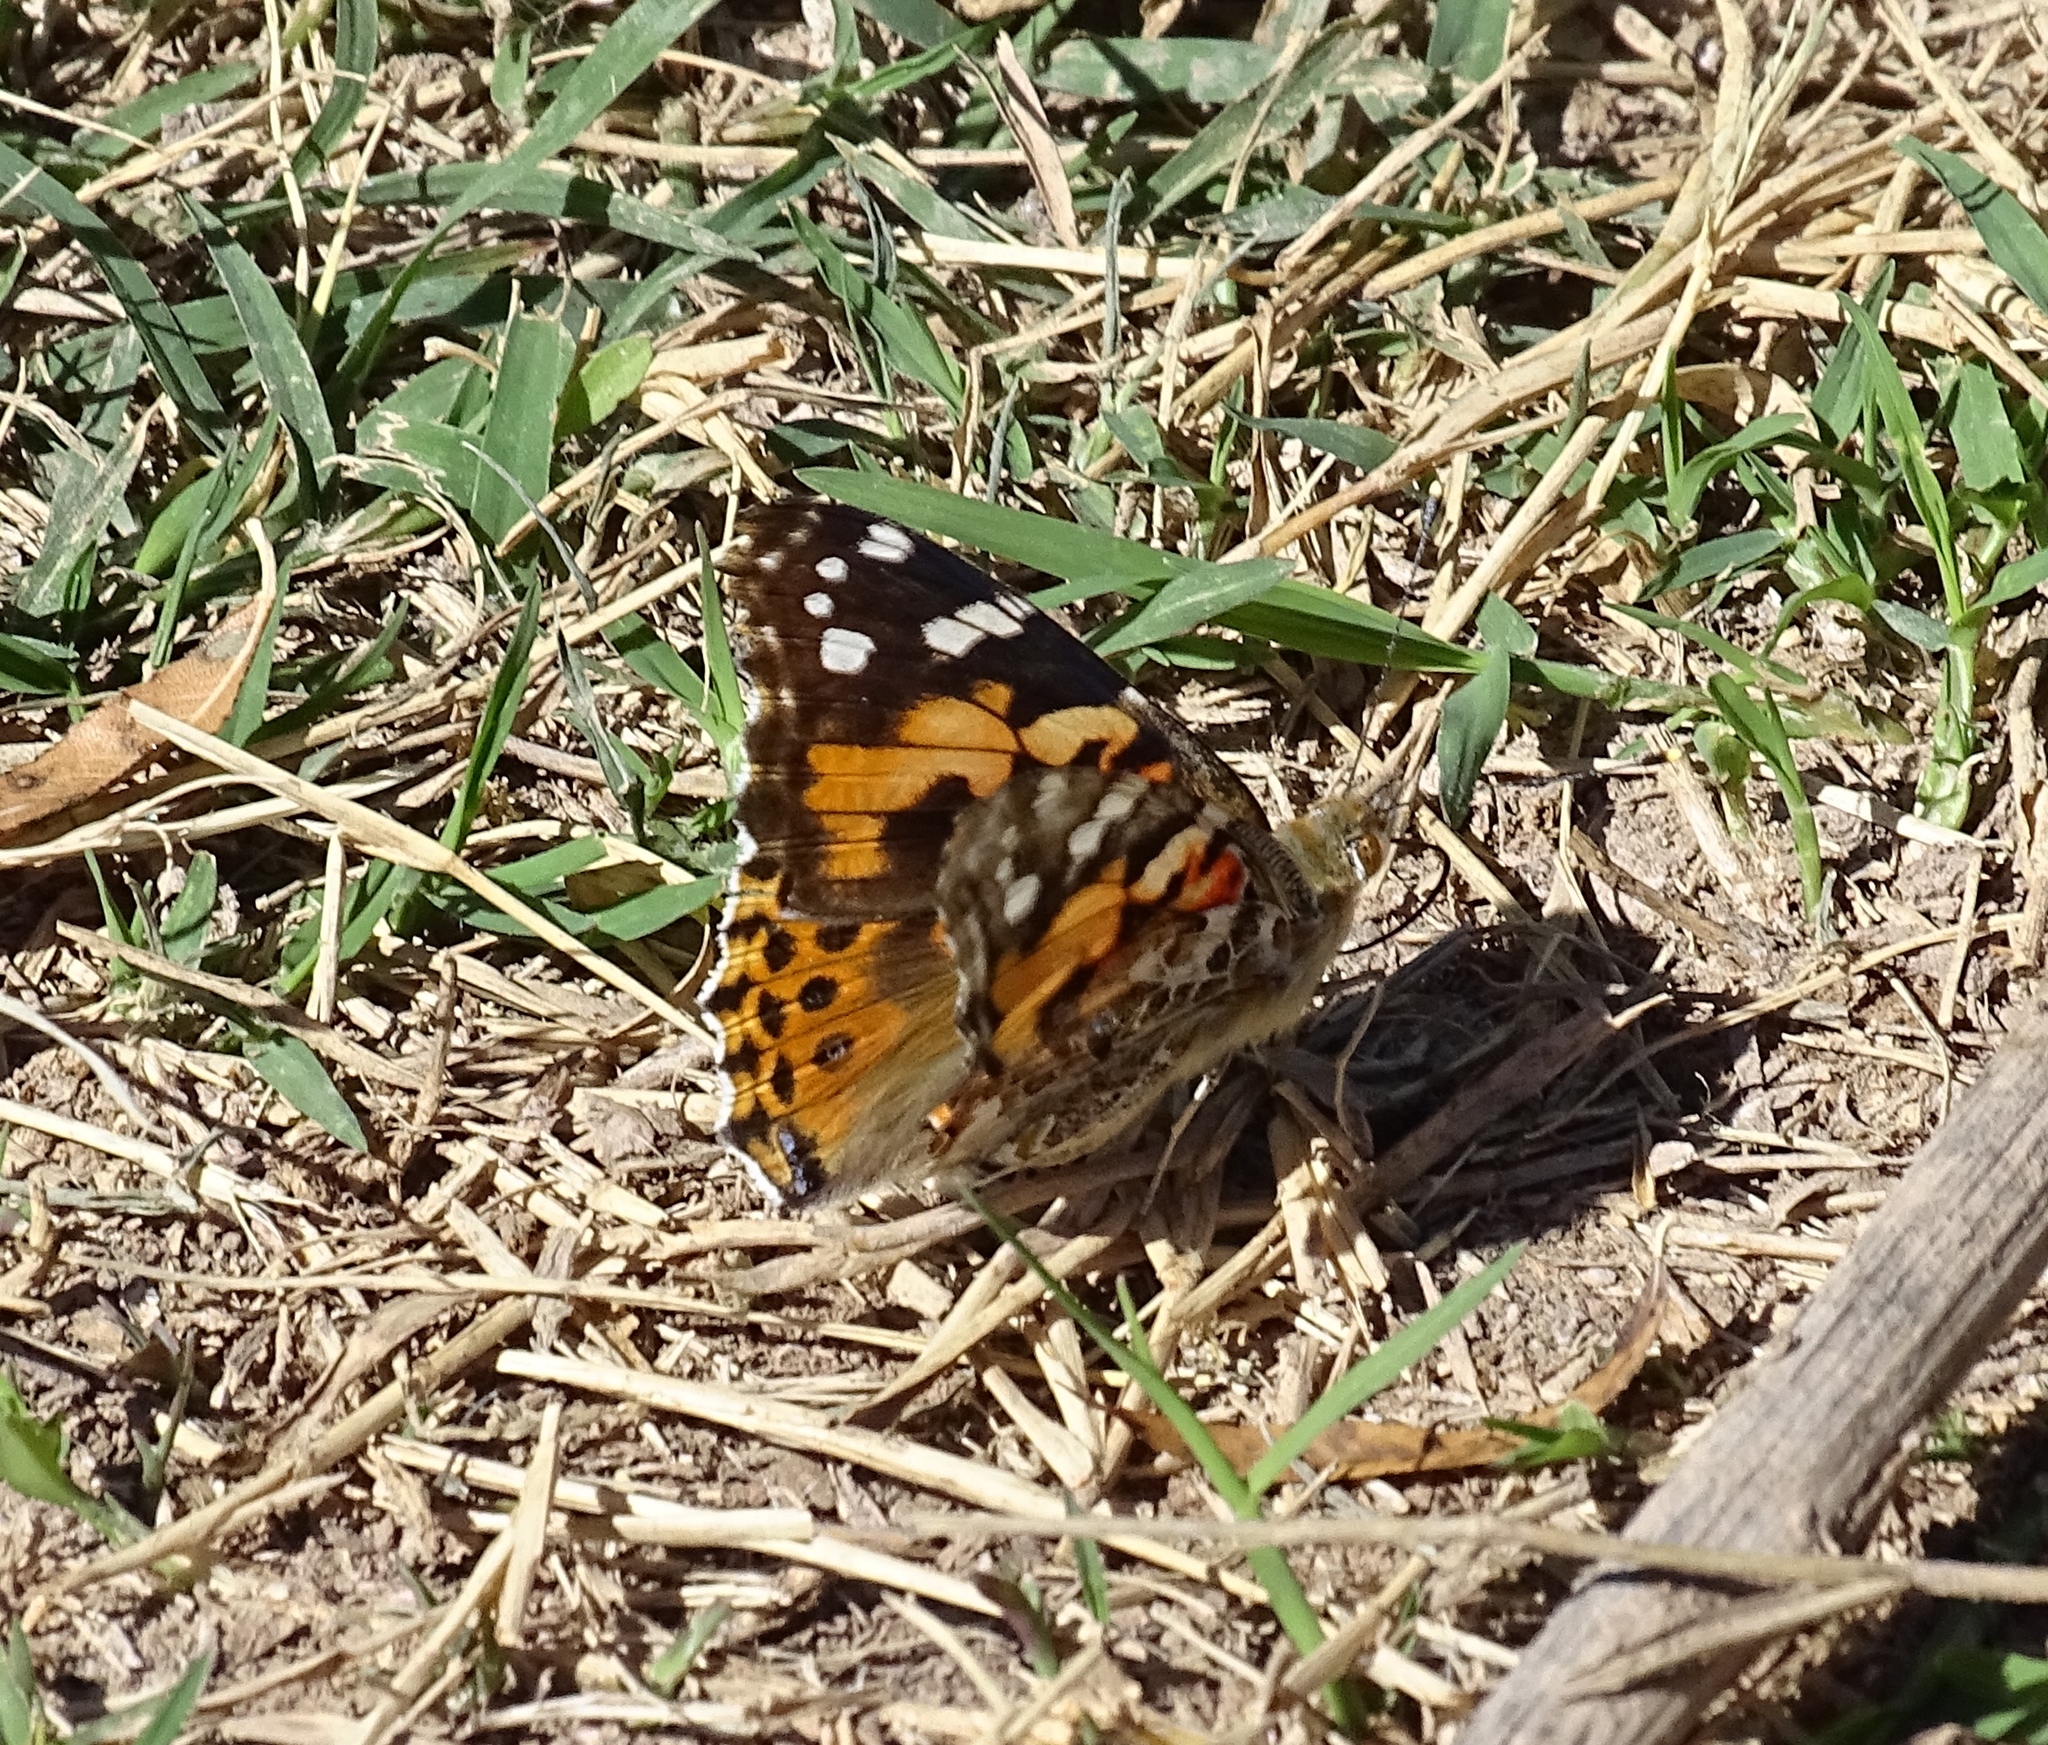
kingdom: Animalia
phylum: Arthropoda
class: Insecta
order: Lepidoptera
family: Nymphalidae
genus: Vanessa
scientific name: Vanessa cardui
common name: Painted lady
